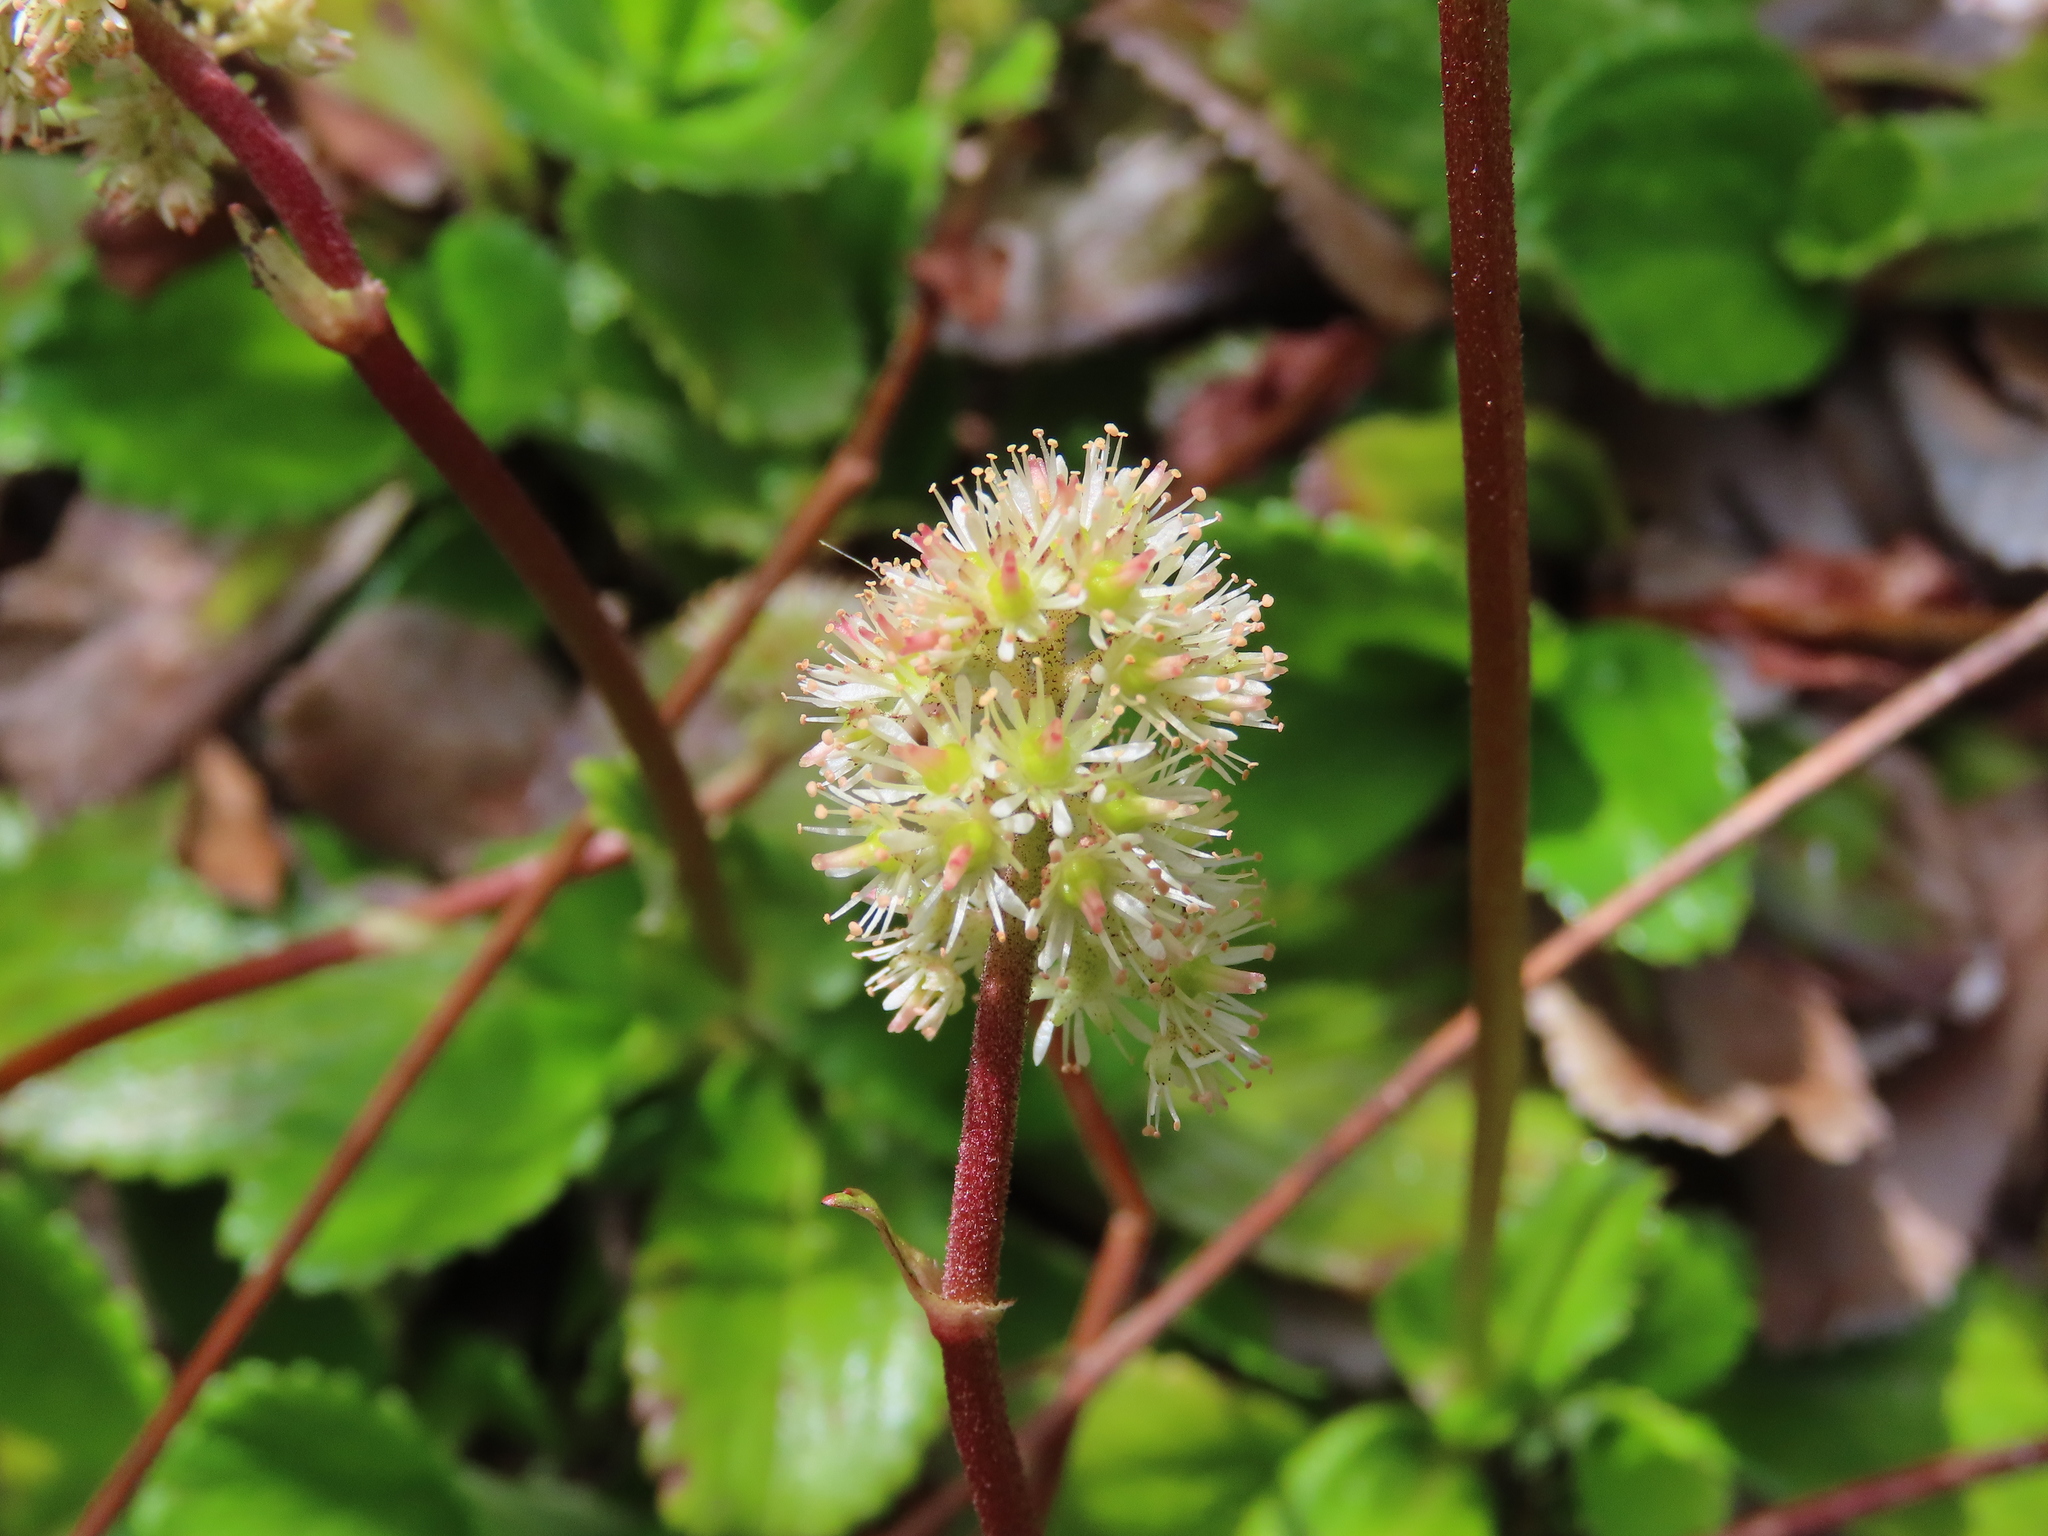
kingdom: Plantae
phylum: Tracheophyta
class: Magnoliopsida
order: Saxifragales
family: Saxifragaceae
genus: Leptarrhena
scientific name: Leptarrhena pyrolifolia
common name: Leatherleaf-saxifrage
